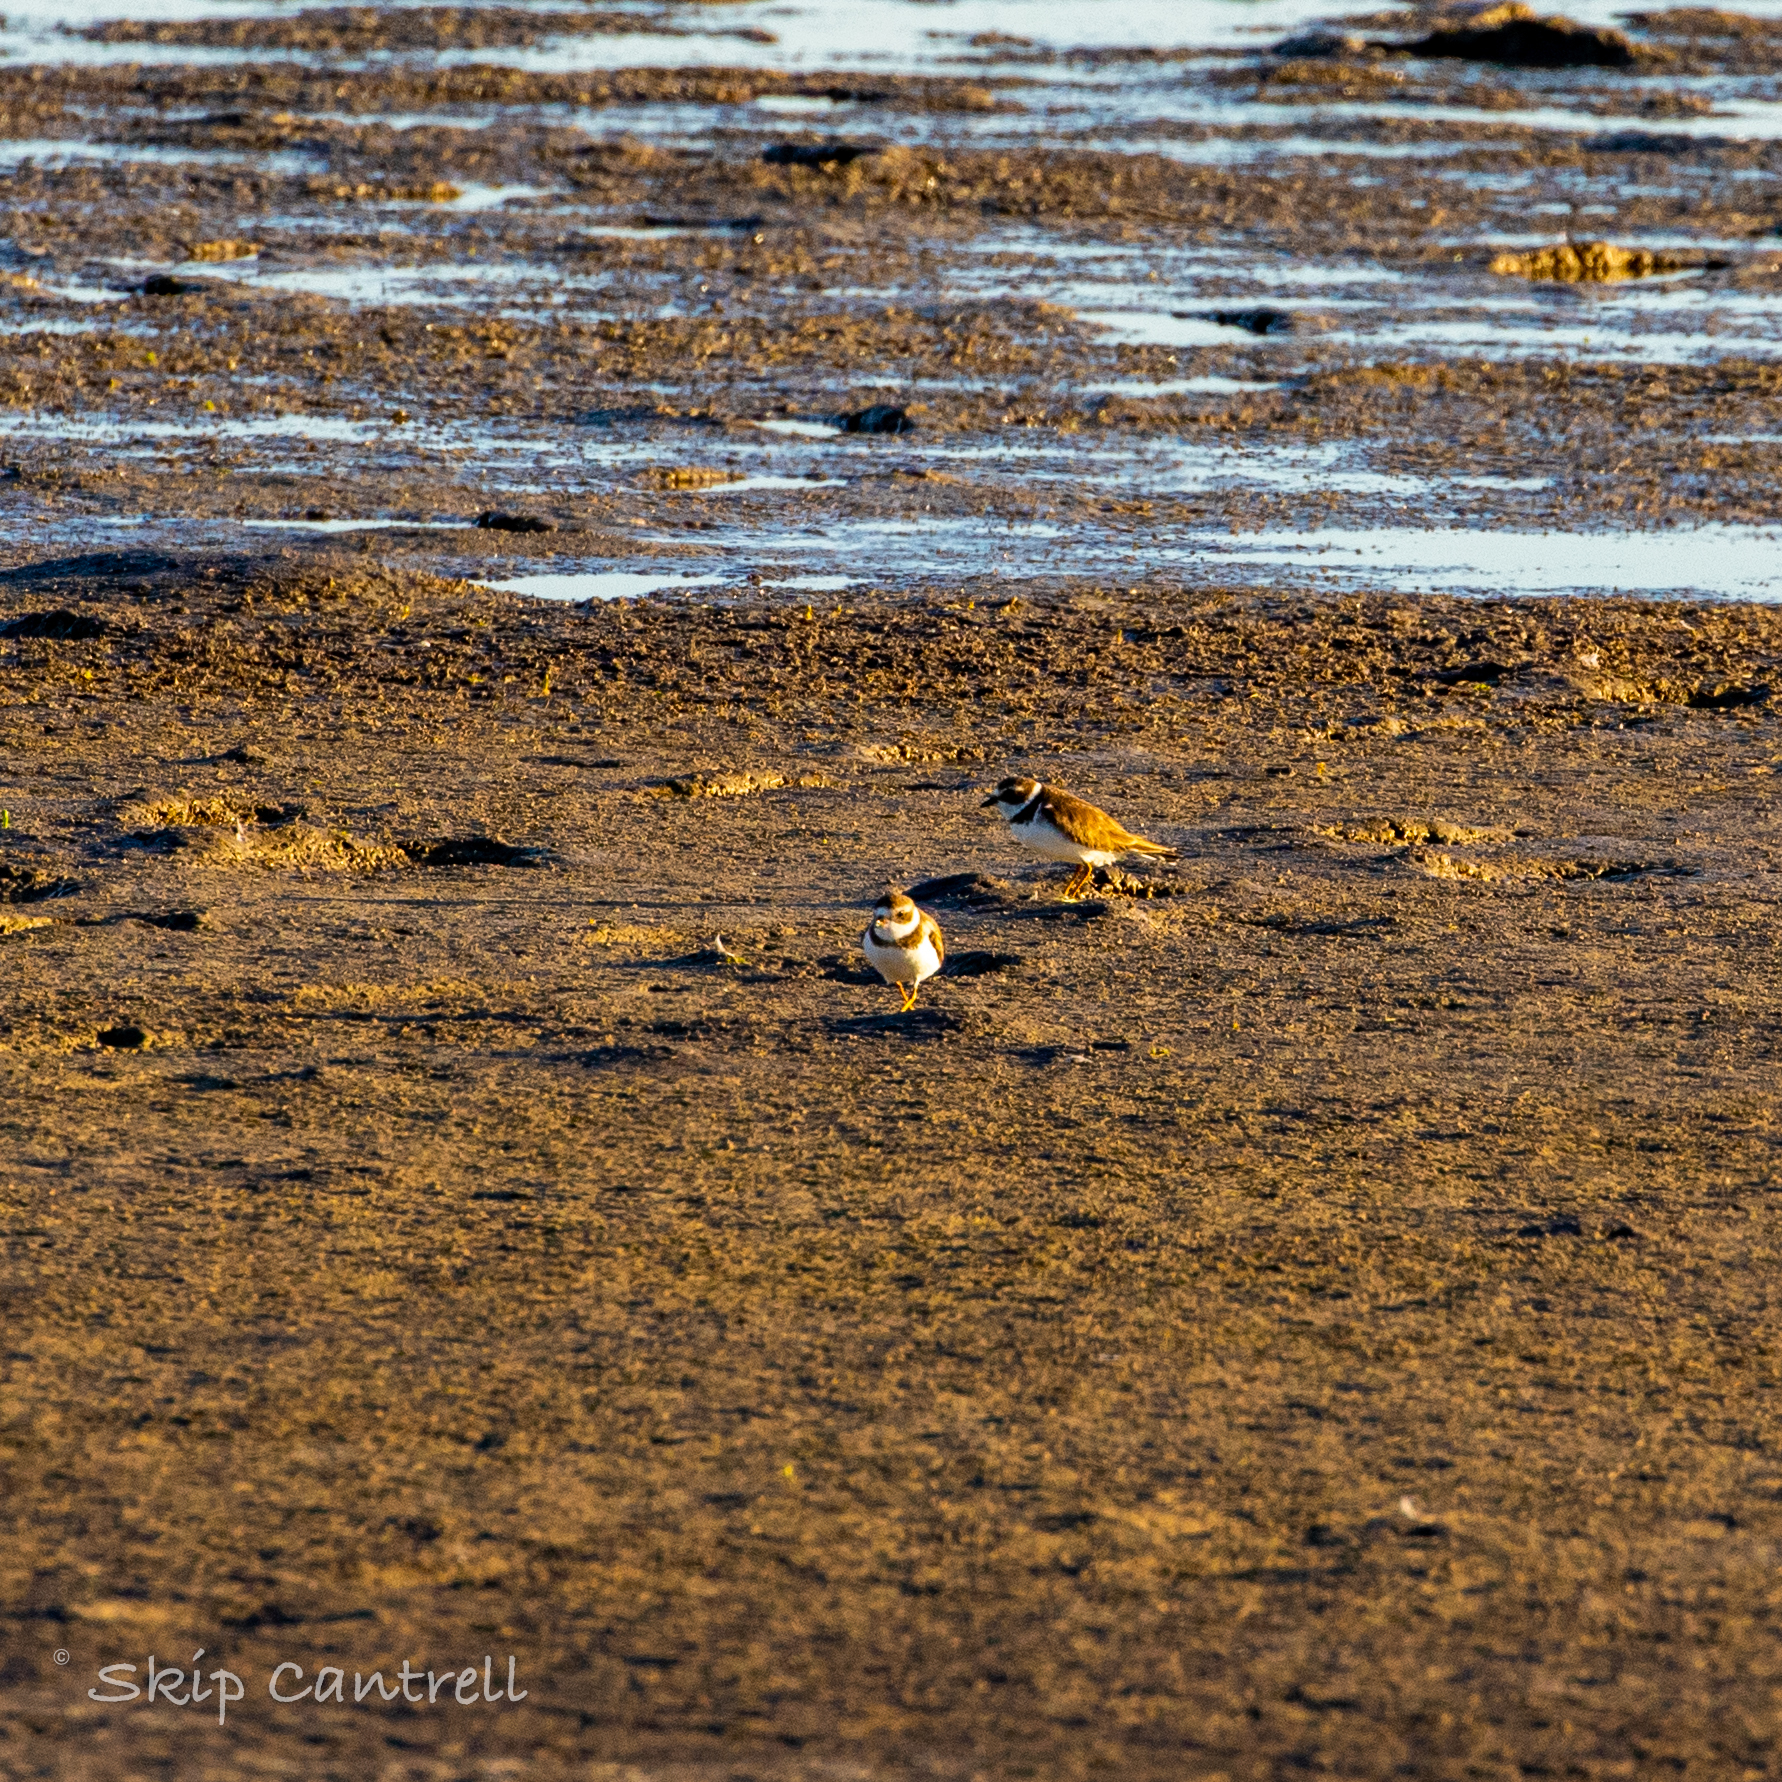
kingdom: Animalia
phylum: Chordata
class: Aves
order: Charadriiformes
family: Charadriidae
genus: Charadrius
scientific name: Charadrius semipalmatus
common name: Semipalmated plover
